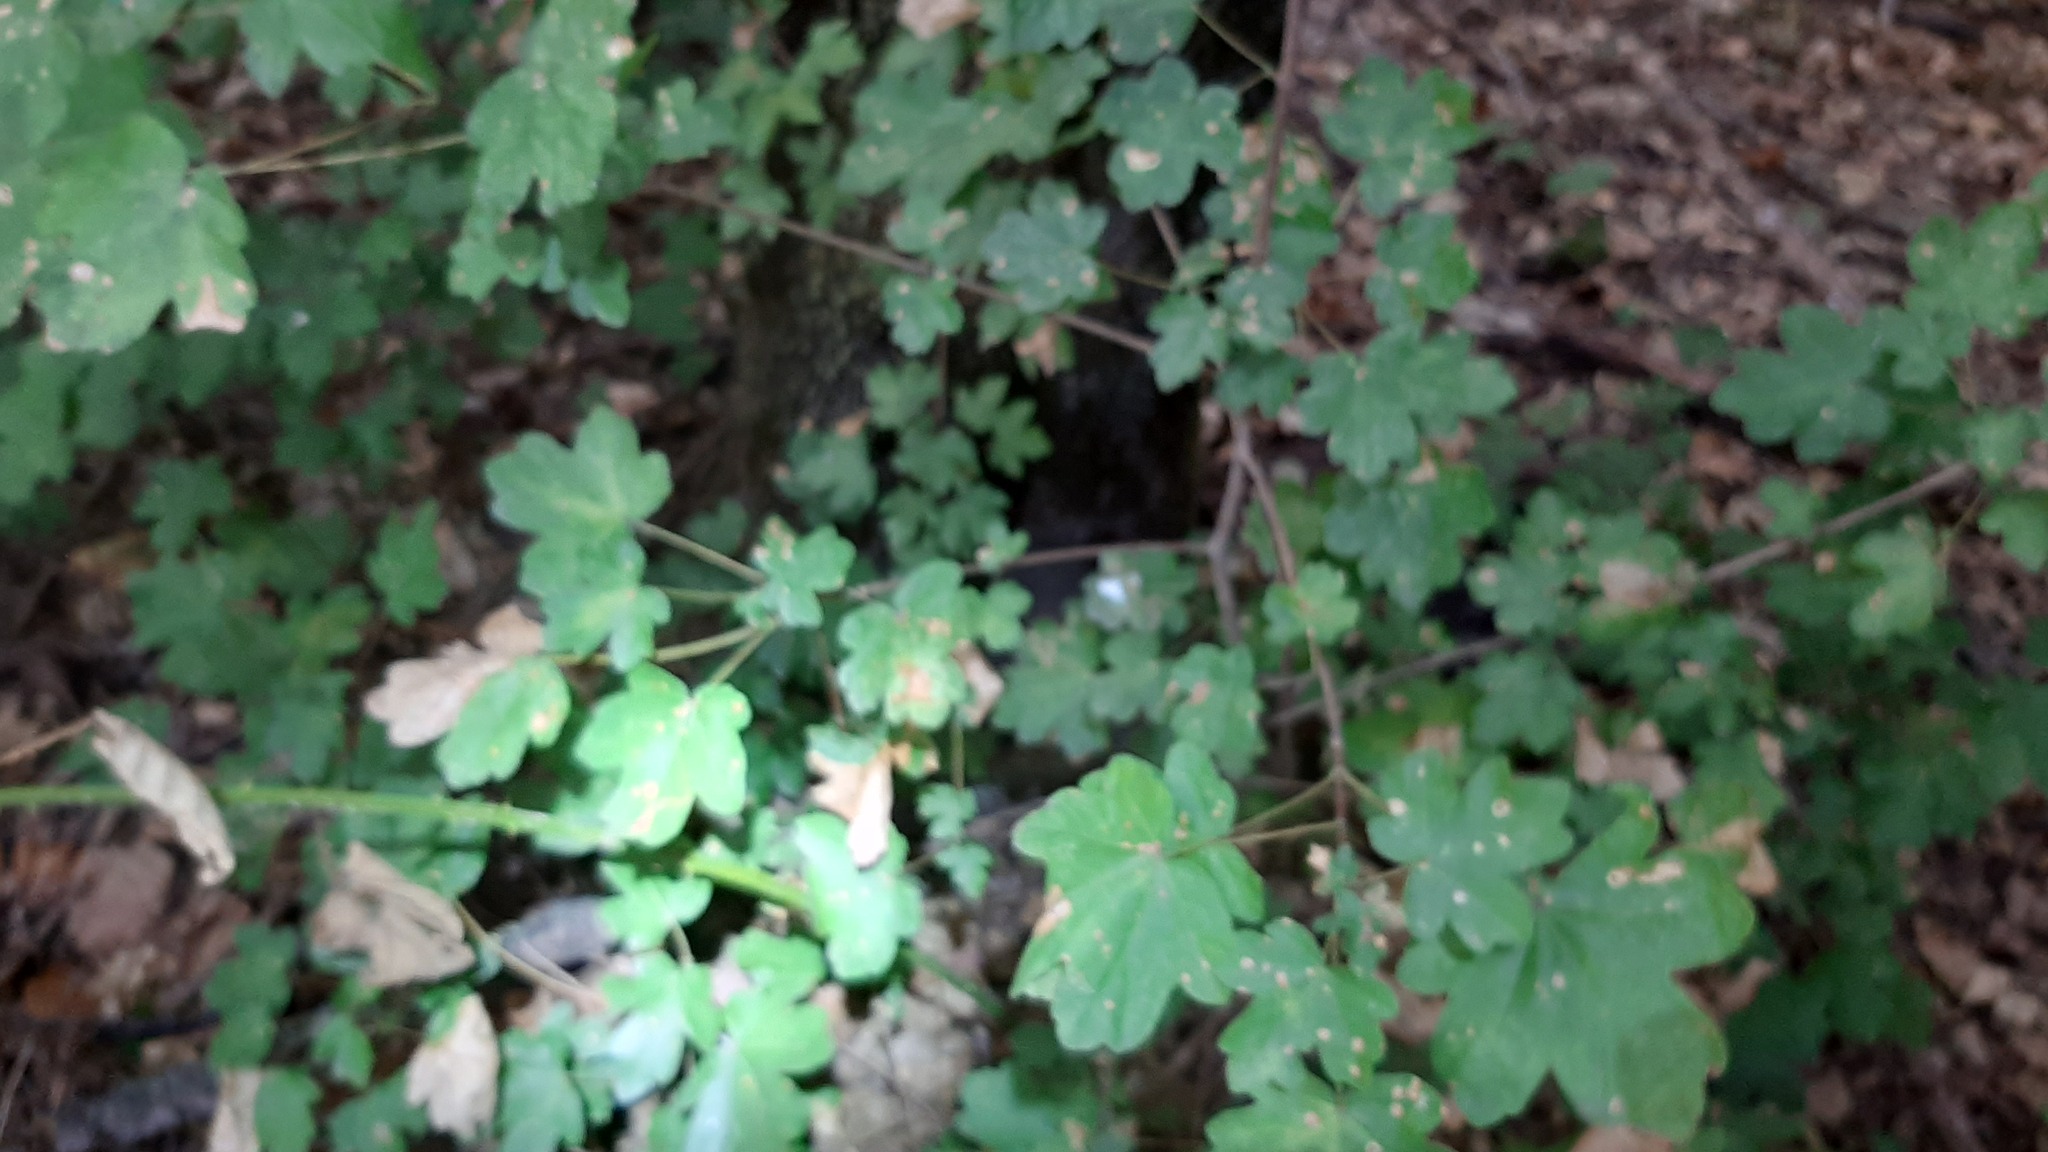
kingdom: Plantae
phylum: Tracheophyta
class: Magnoliopsida
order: Sapindales
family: Sapindaceae
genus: Acer
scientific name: Acer campestre
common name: Field maple
